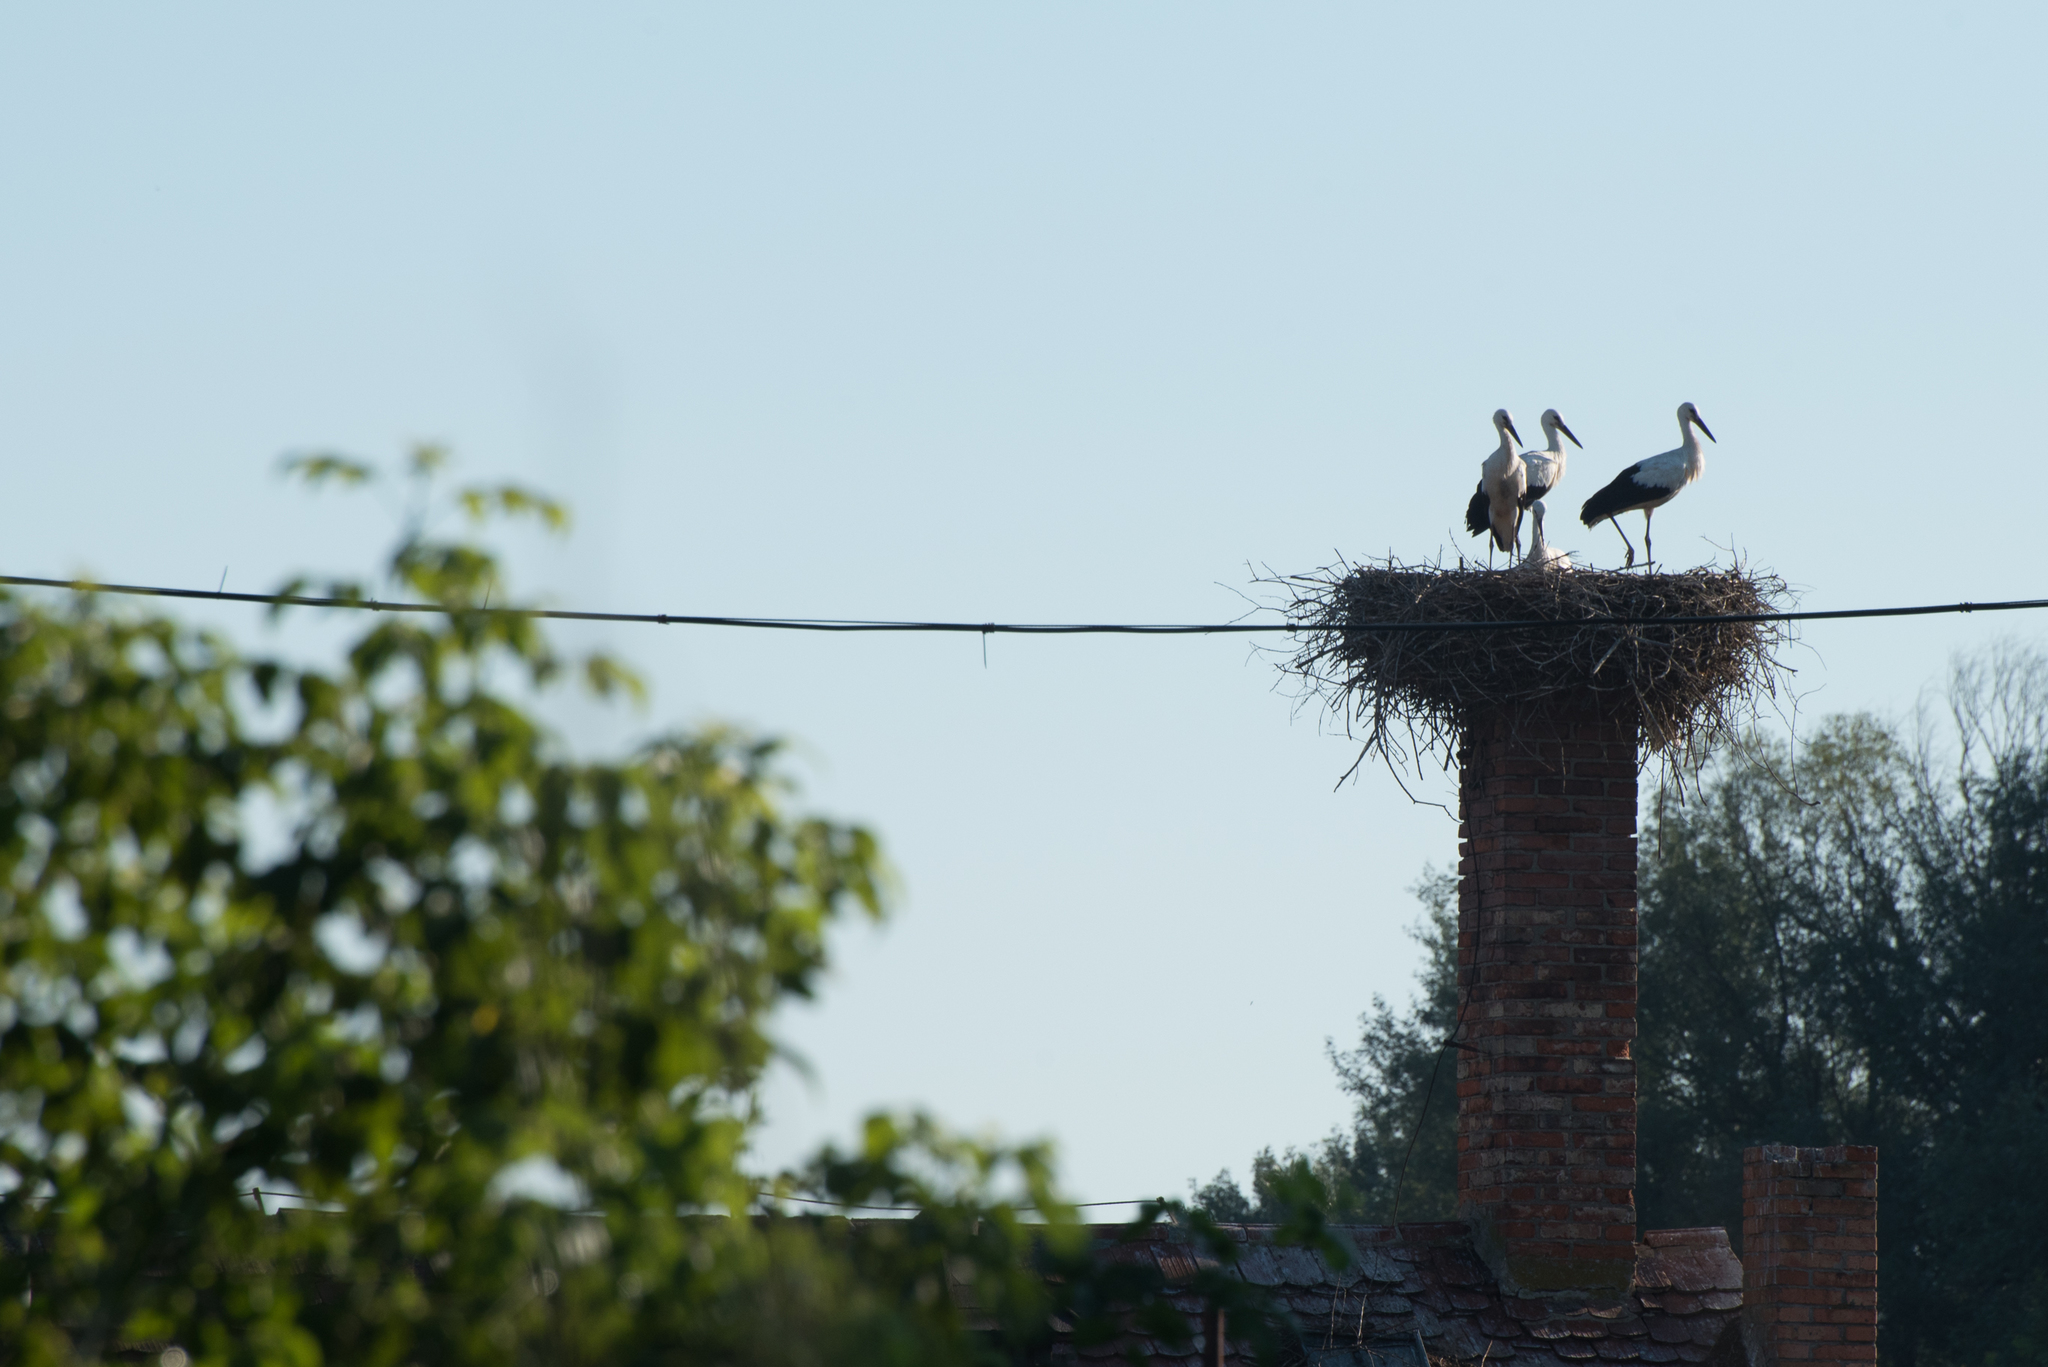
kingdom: Animalia
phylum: Chordata
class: Aves
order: Ciconiiformes
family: Ciconiidae
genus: Ciconia
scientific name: Ciconia ciconia
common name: White stork
